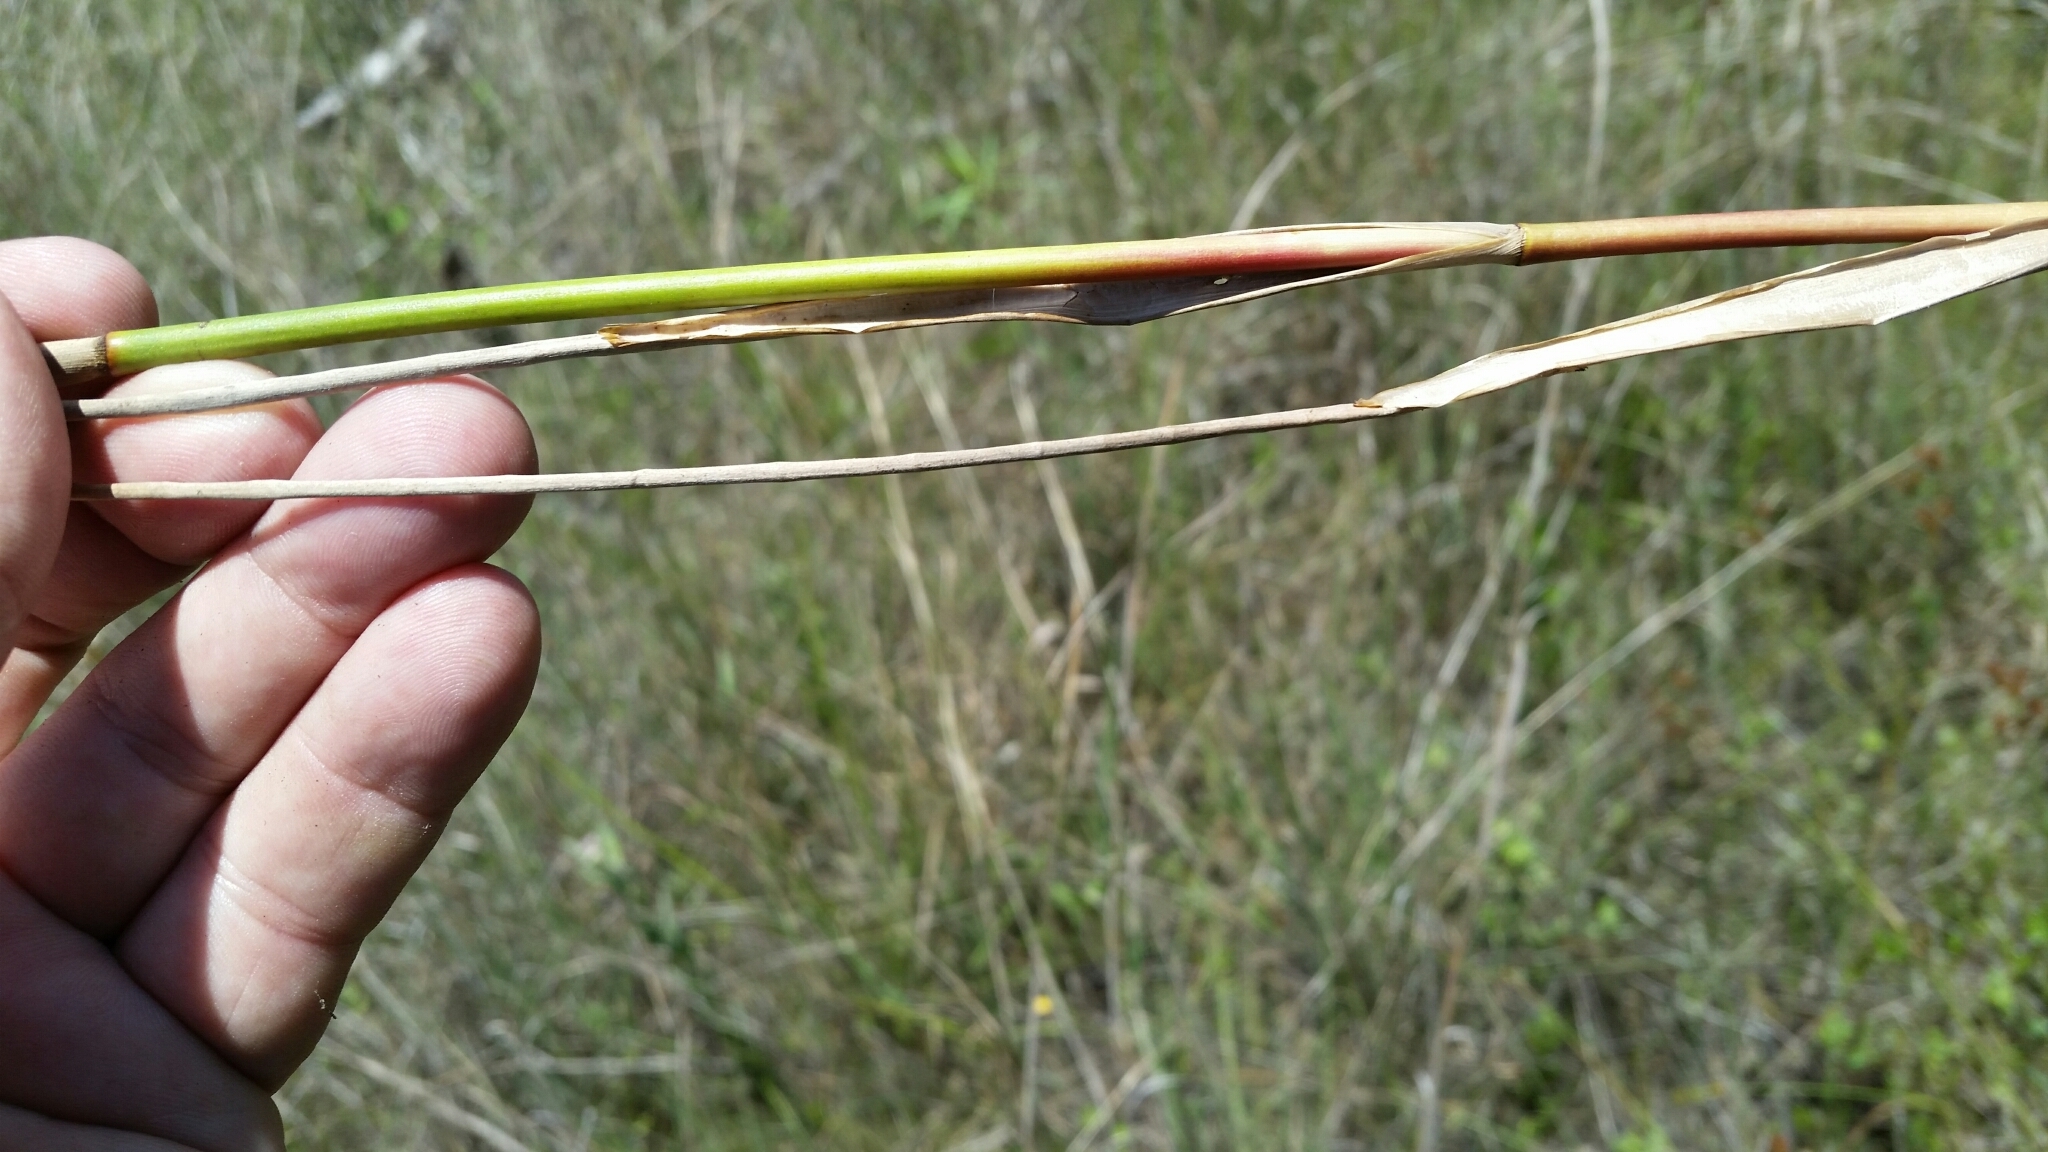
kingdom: Plantae
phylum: Tracheophyta
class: Liliopsida
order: Poales
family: Juncaceae
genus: Juncus
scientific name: Juncus megacephalus
